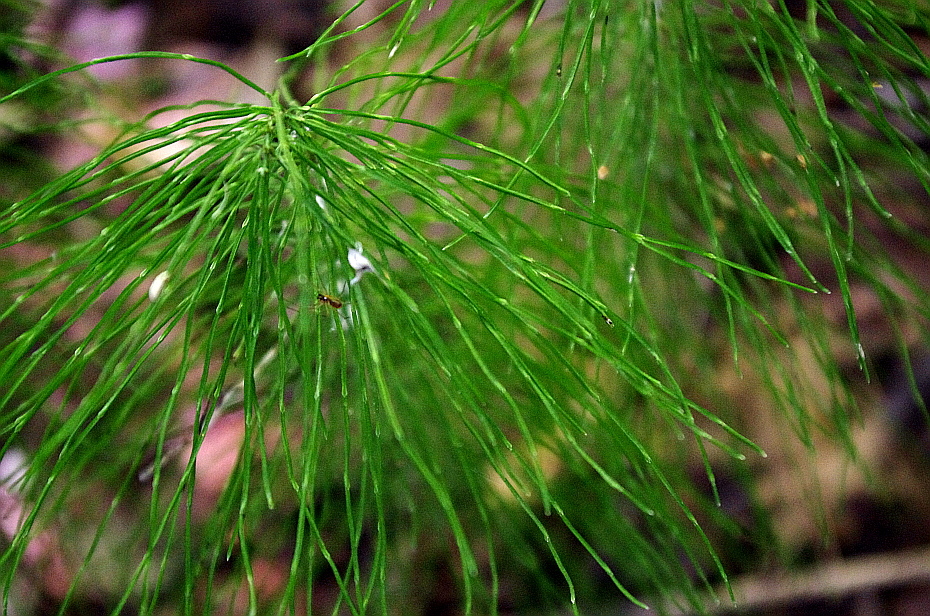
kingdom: Plantae
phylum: Tracheophyta
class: Polypodiopsida
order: Equisetales
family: Equisetaceae
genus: Equisetum
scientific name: Equisetum pratense
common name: Meadow horsetail
